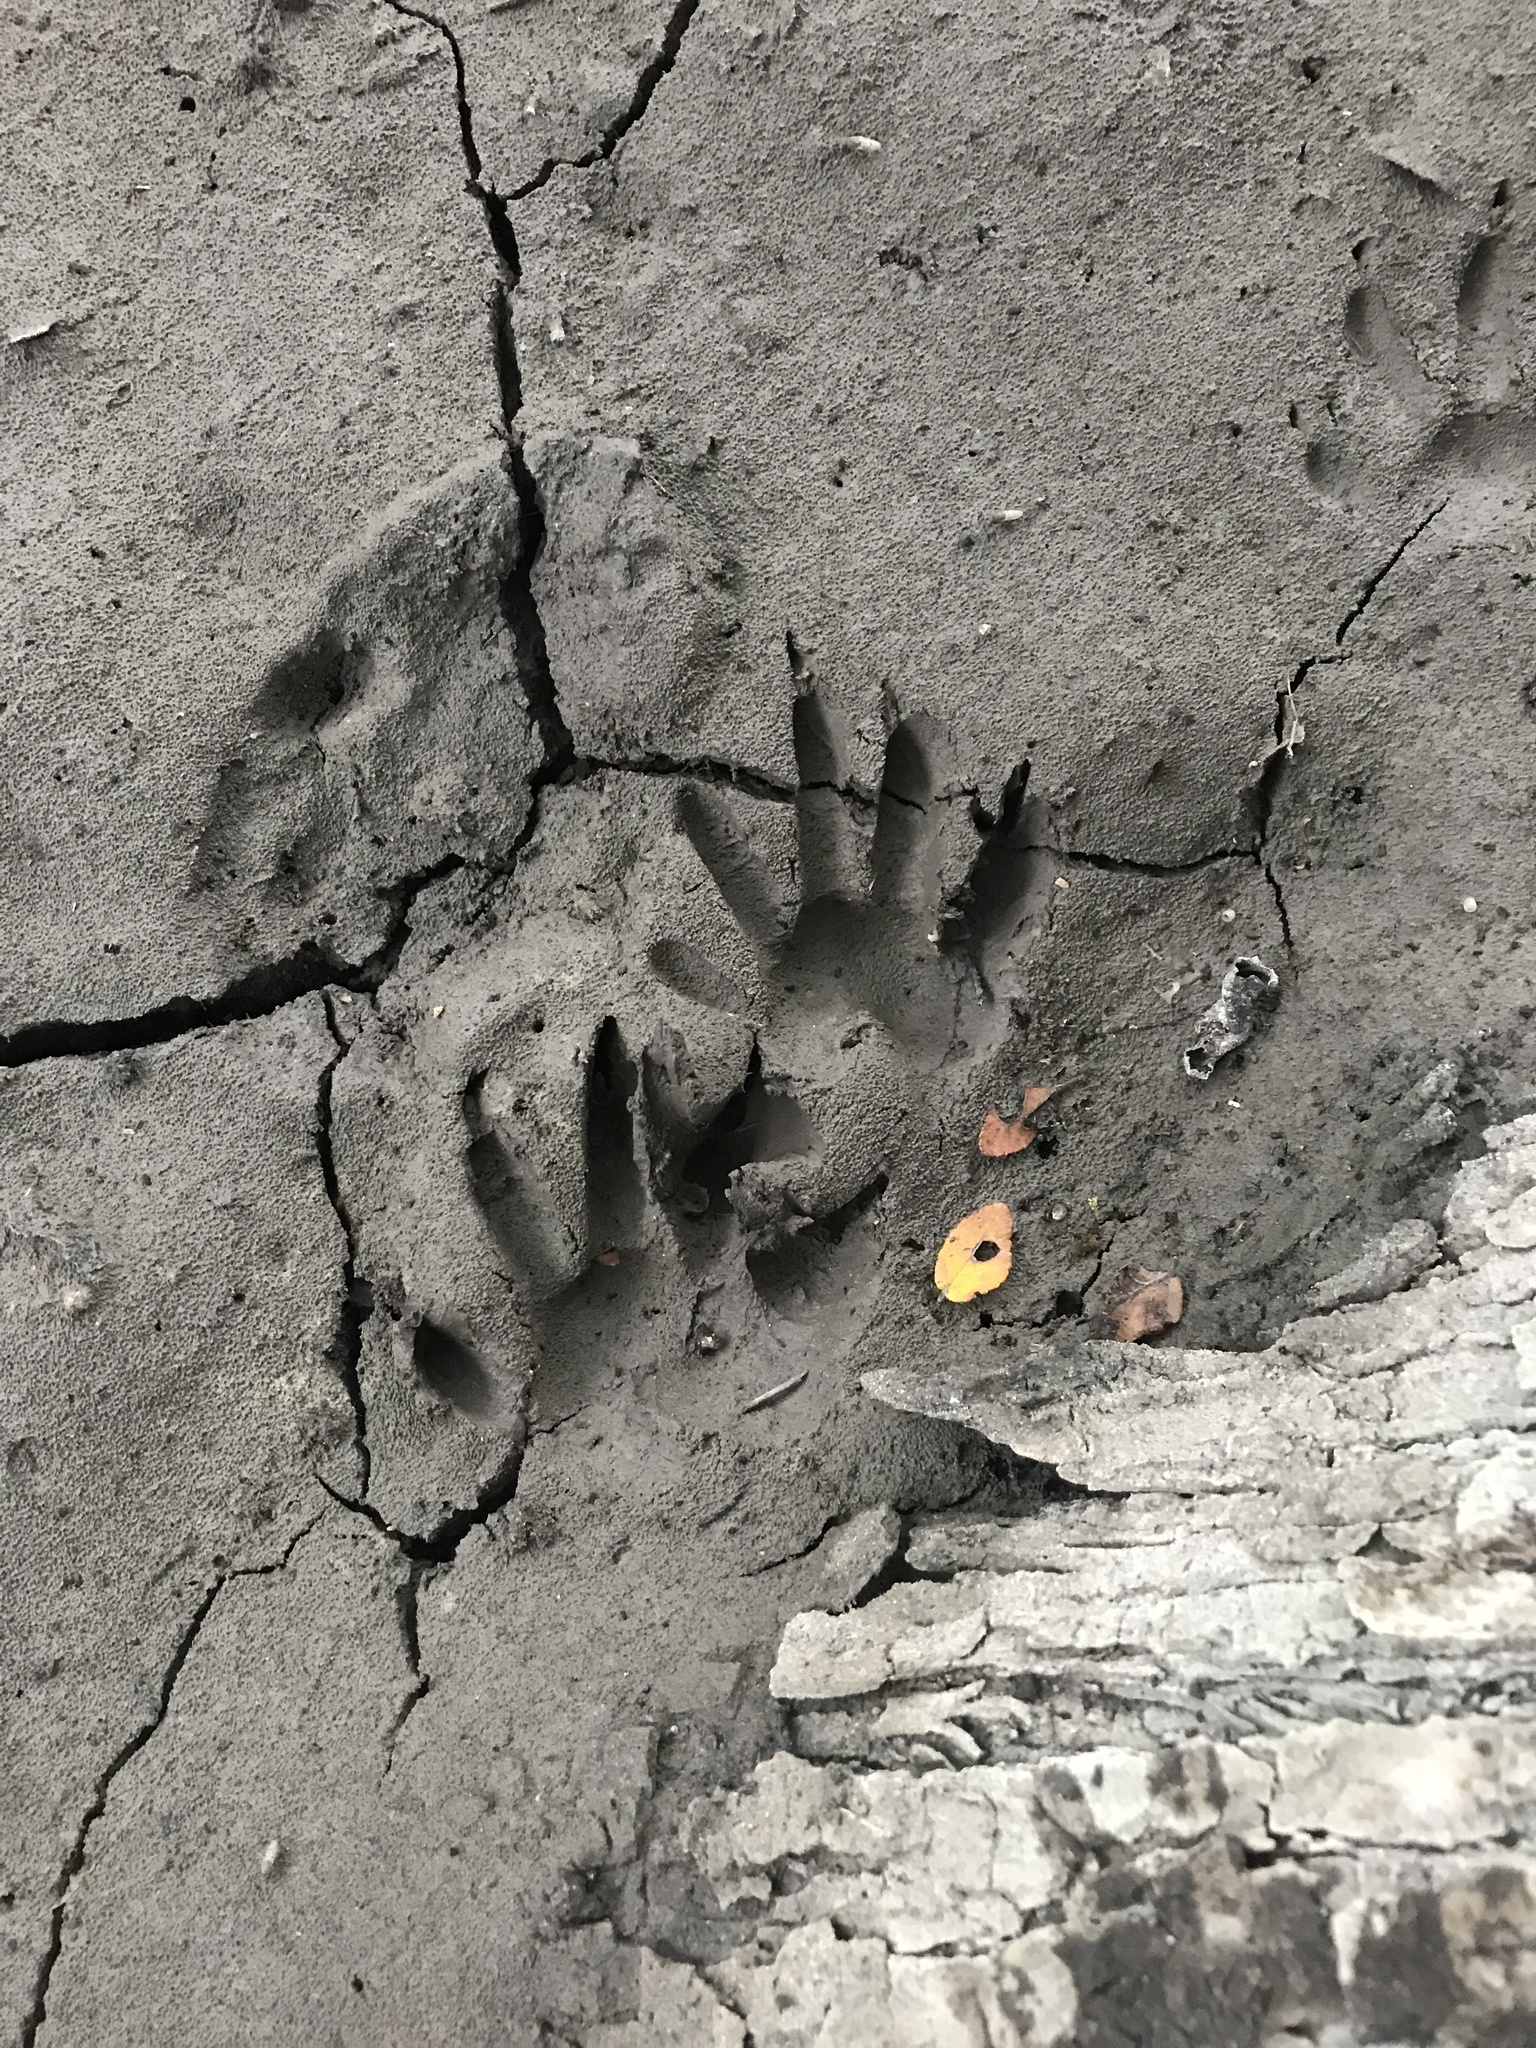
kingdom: Animalia
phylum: Chordata
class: Mammalia
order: Carnivora
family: Procyonidae
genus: Procyon
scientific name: Procyon lotor
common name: Raccoon
